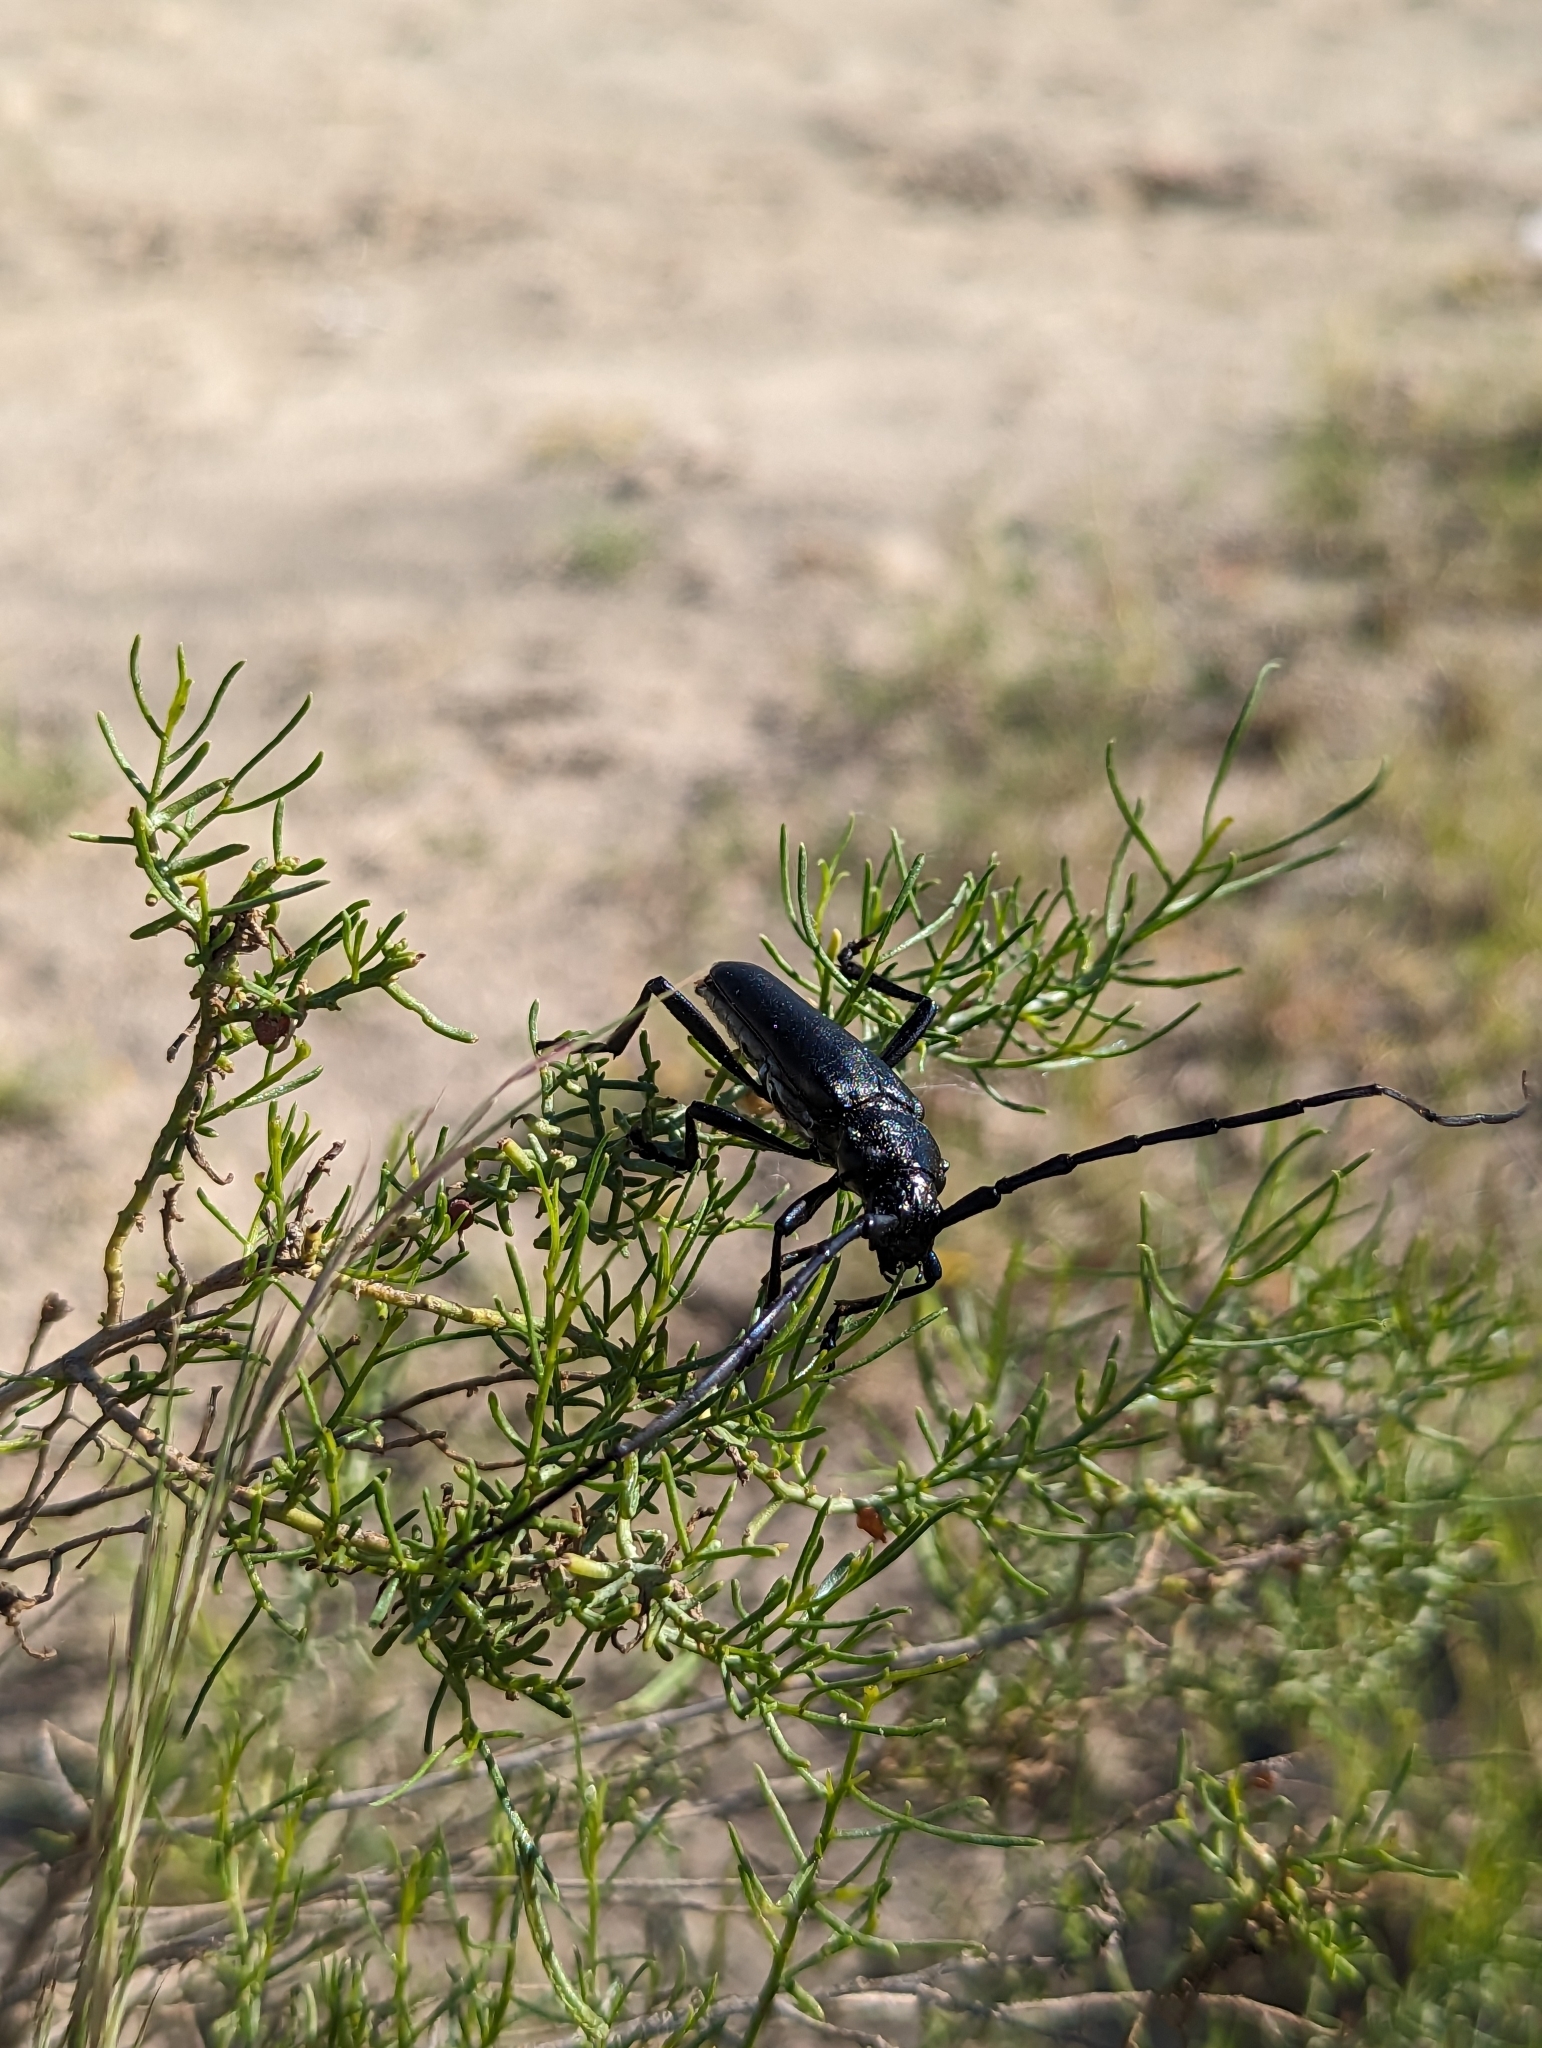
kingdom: Animalia
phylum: Arthropoda
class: Insecta
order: Coleoptera
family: Cerambycidae
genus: Stenaspis
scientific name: Stenaspis solitaria
